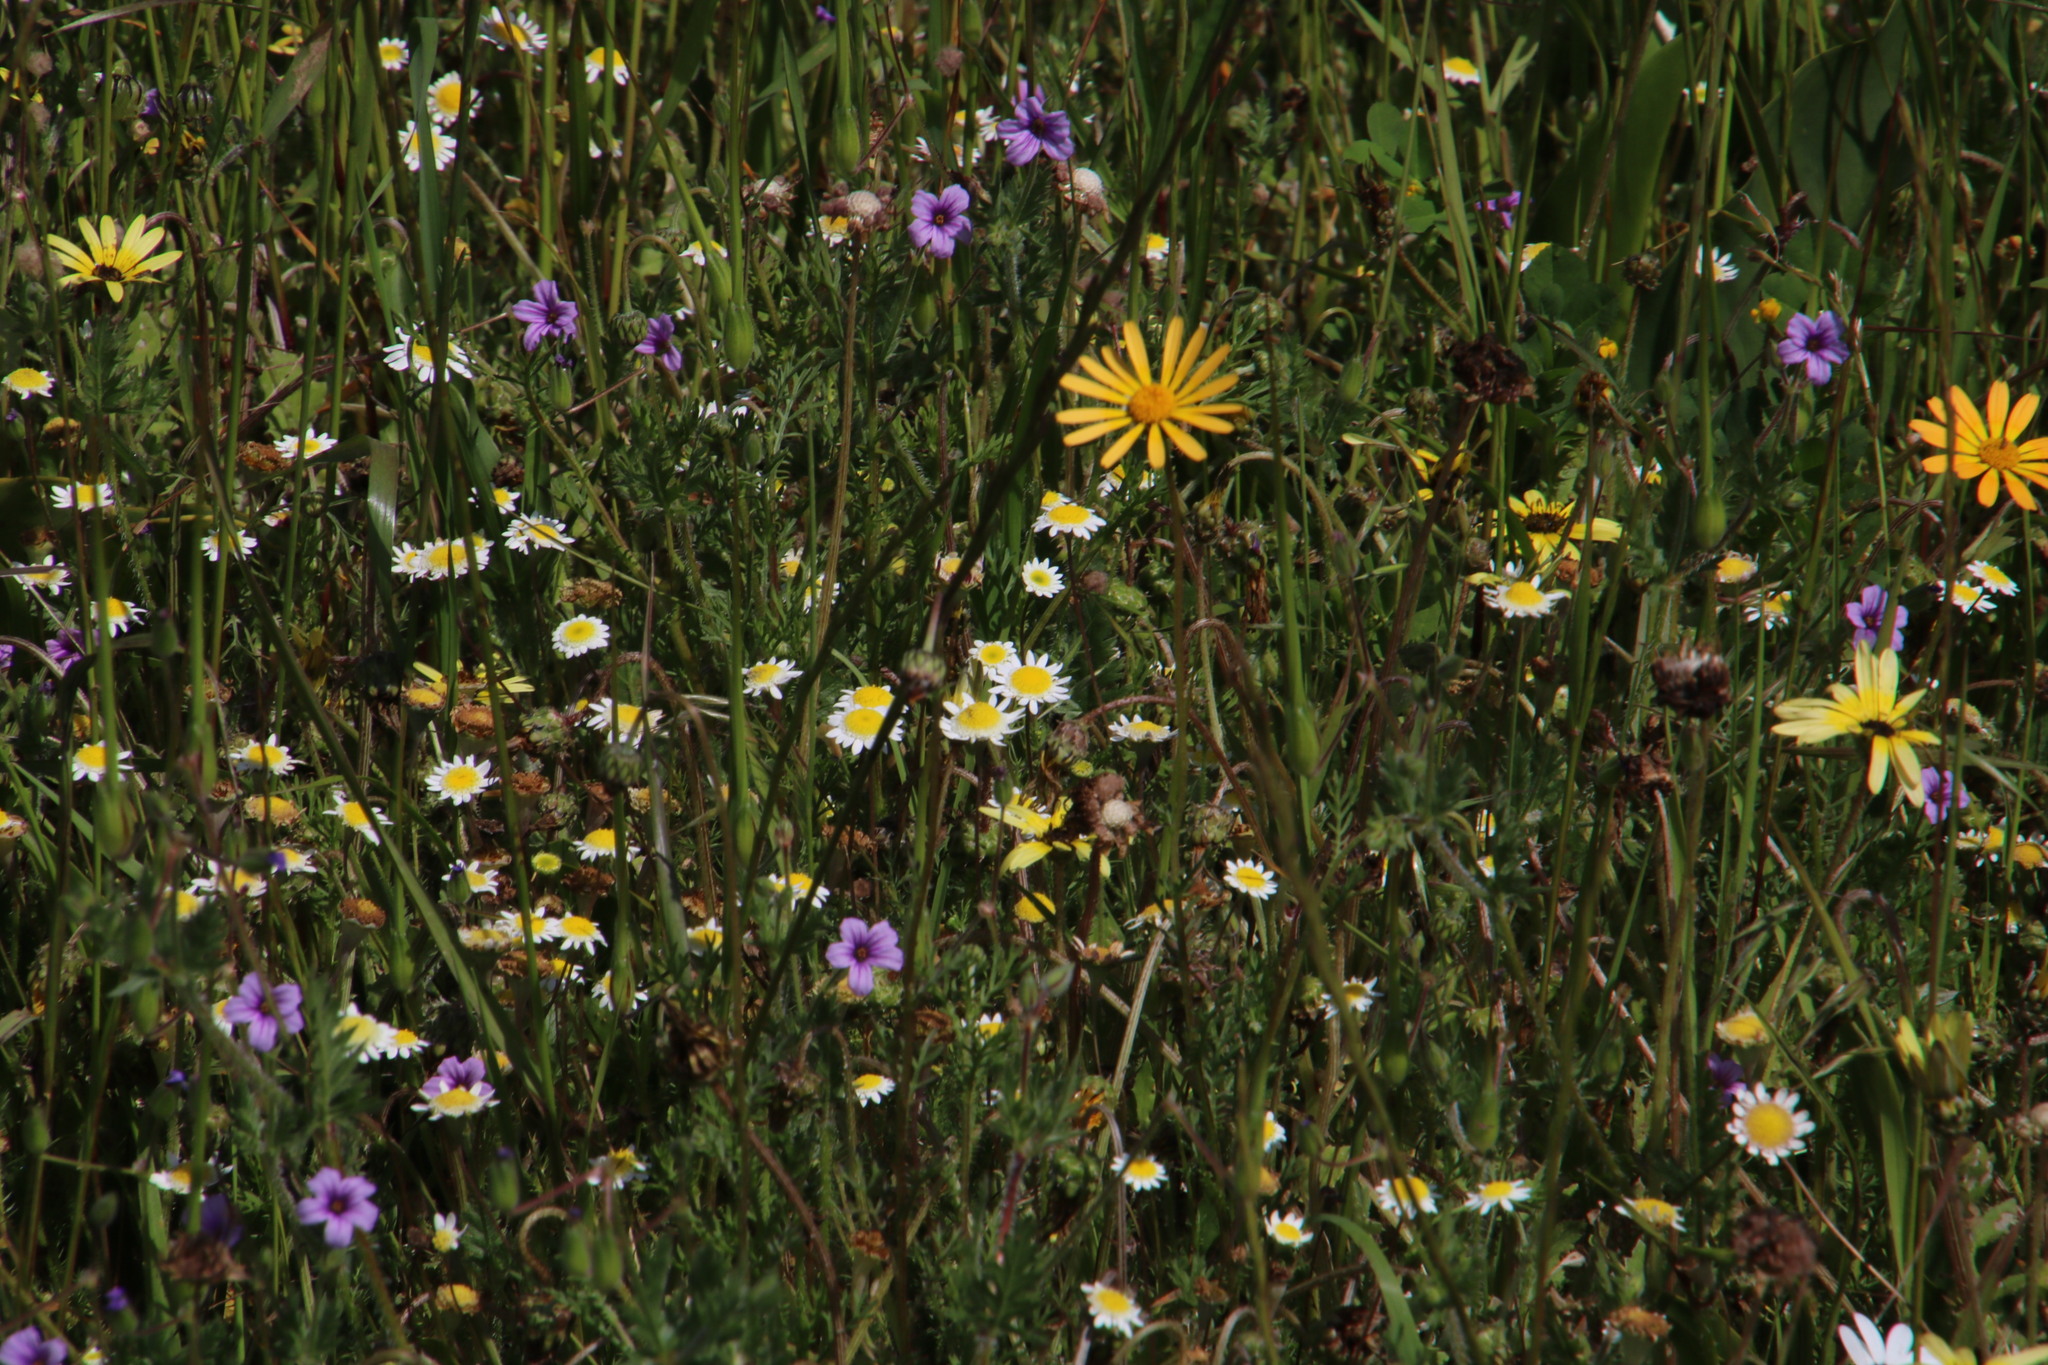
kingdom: Plantae
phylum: Tracheophyta
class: Magnoliopsida
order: Asterales
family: Asteraceae
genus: Cotula
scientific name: Cotula turbinata
